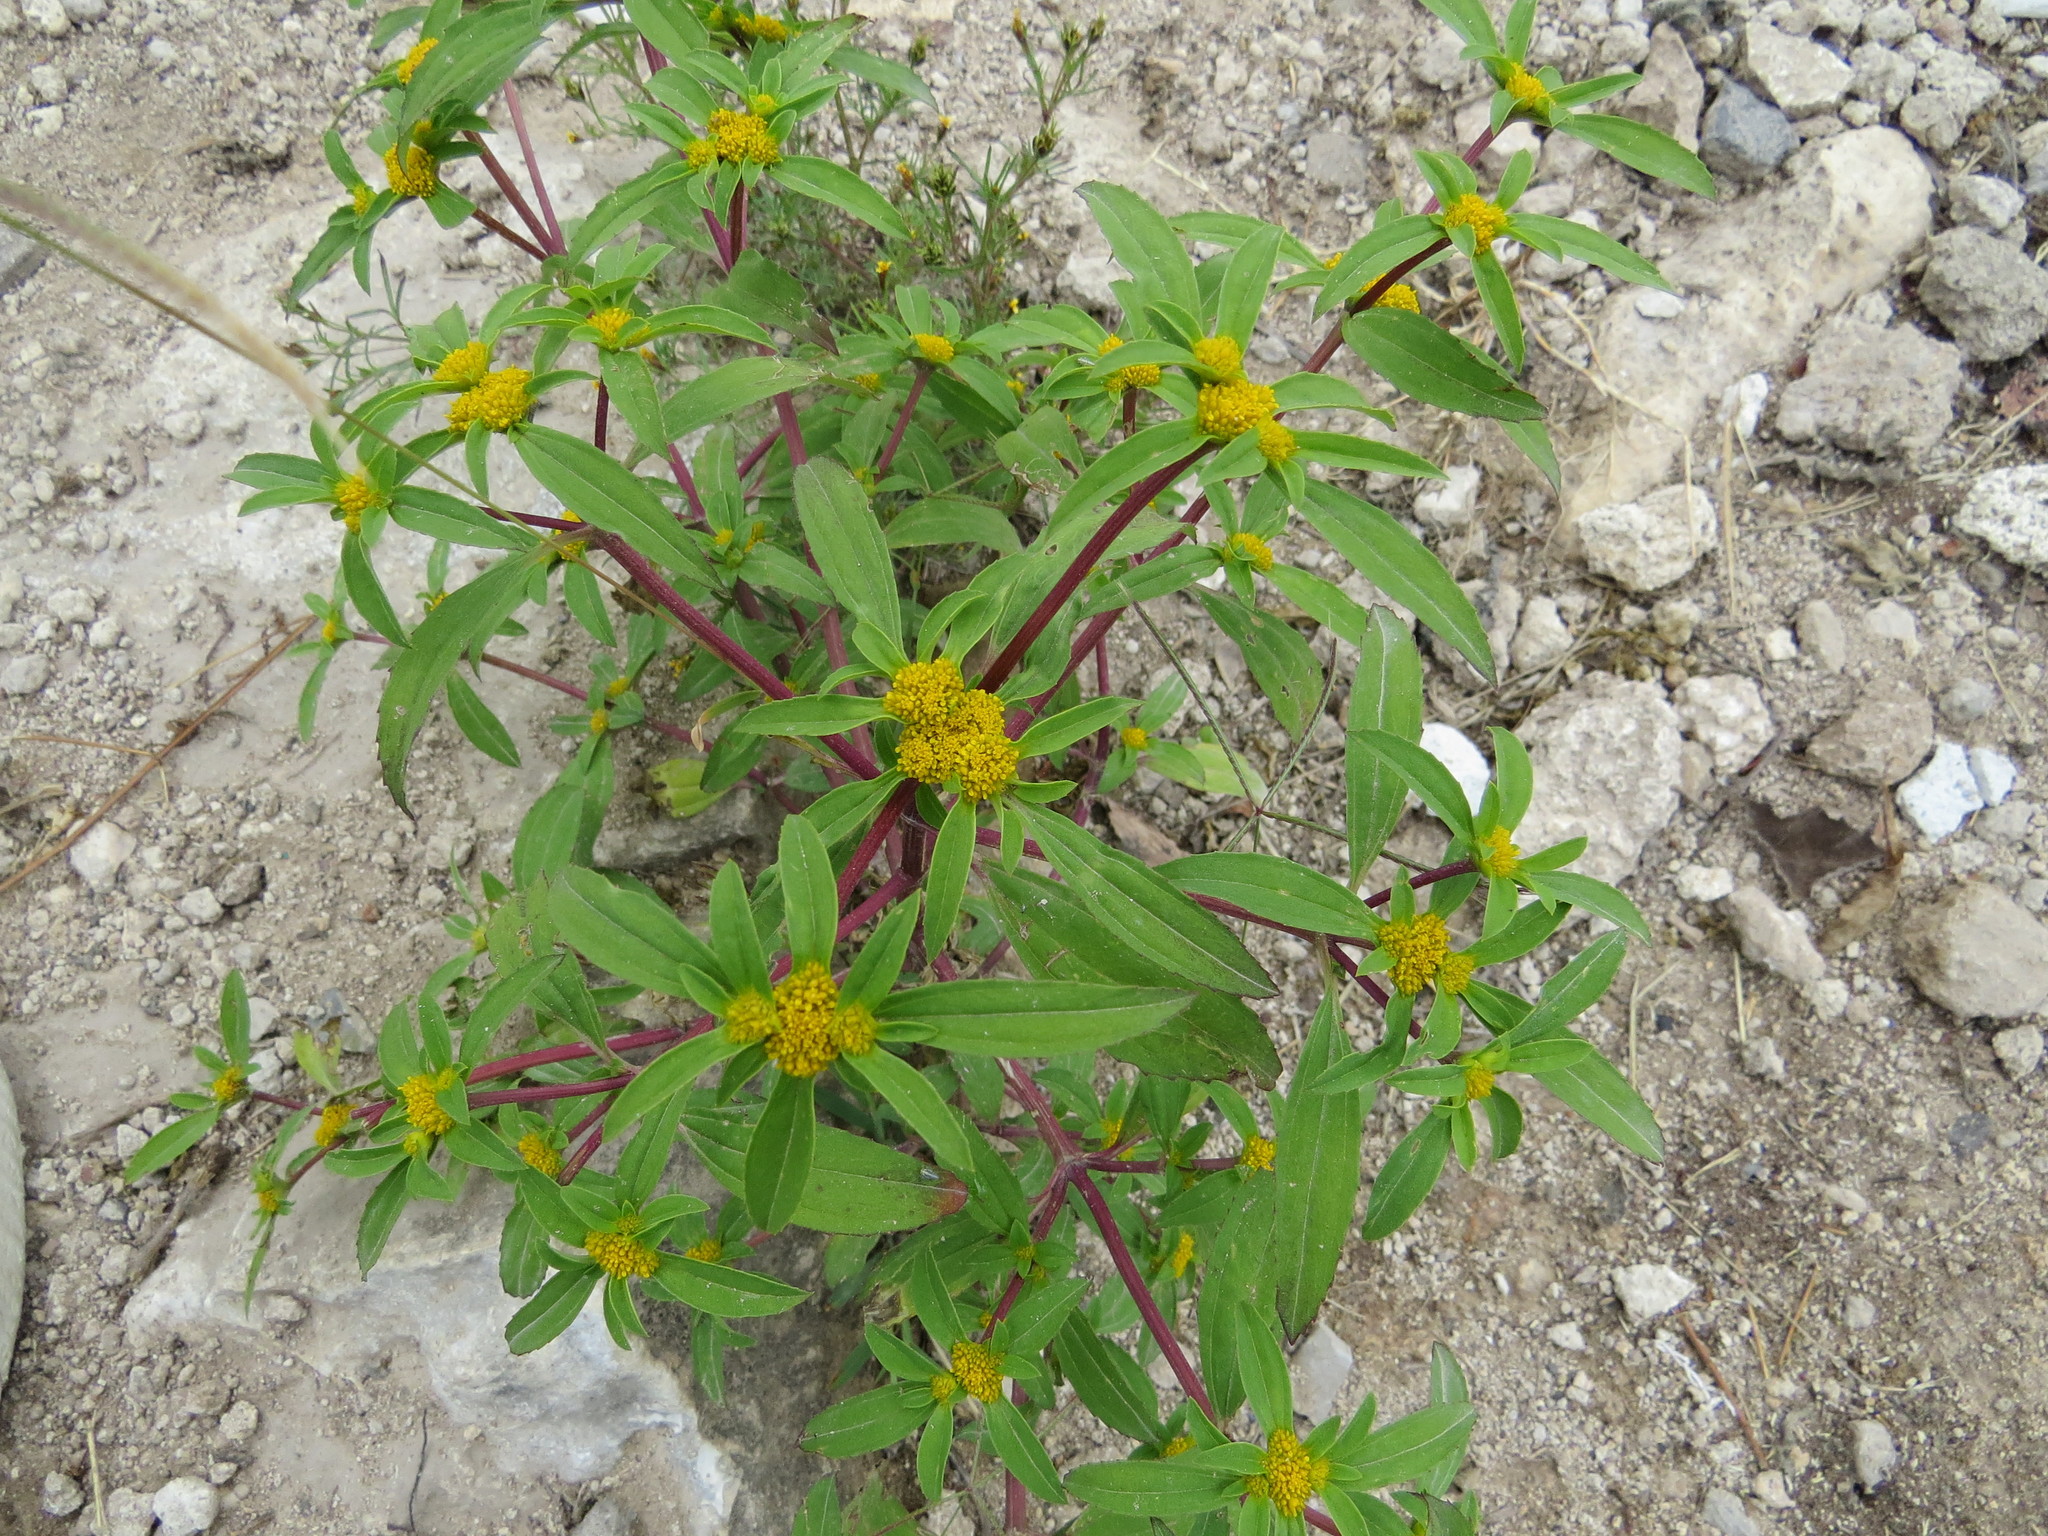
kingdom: Plantae
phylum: Tracheophyta
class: Magnoliopsida
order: Asterales
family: Asteraceae
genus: Flaveria
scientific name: Flaveria trinervia
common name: Clustered yellowtops
